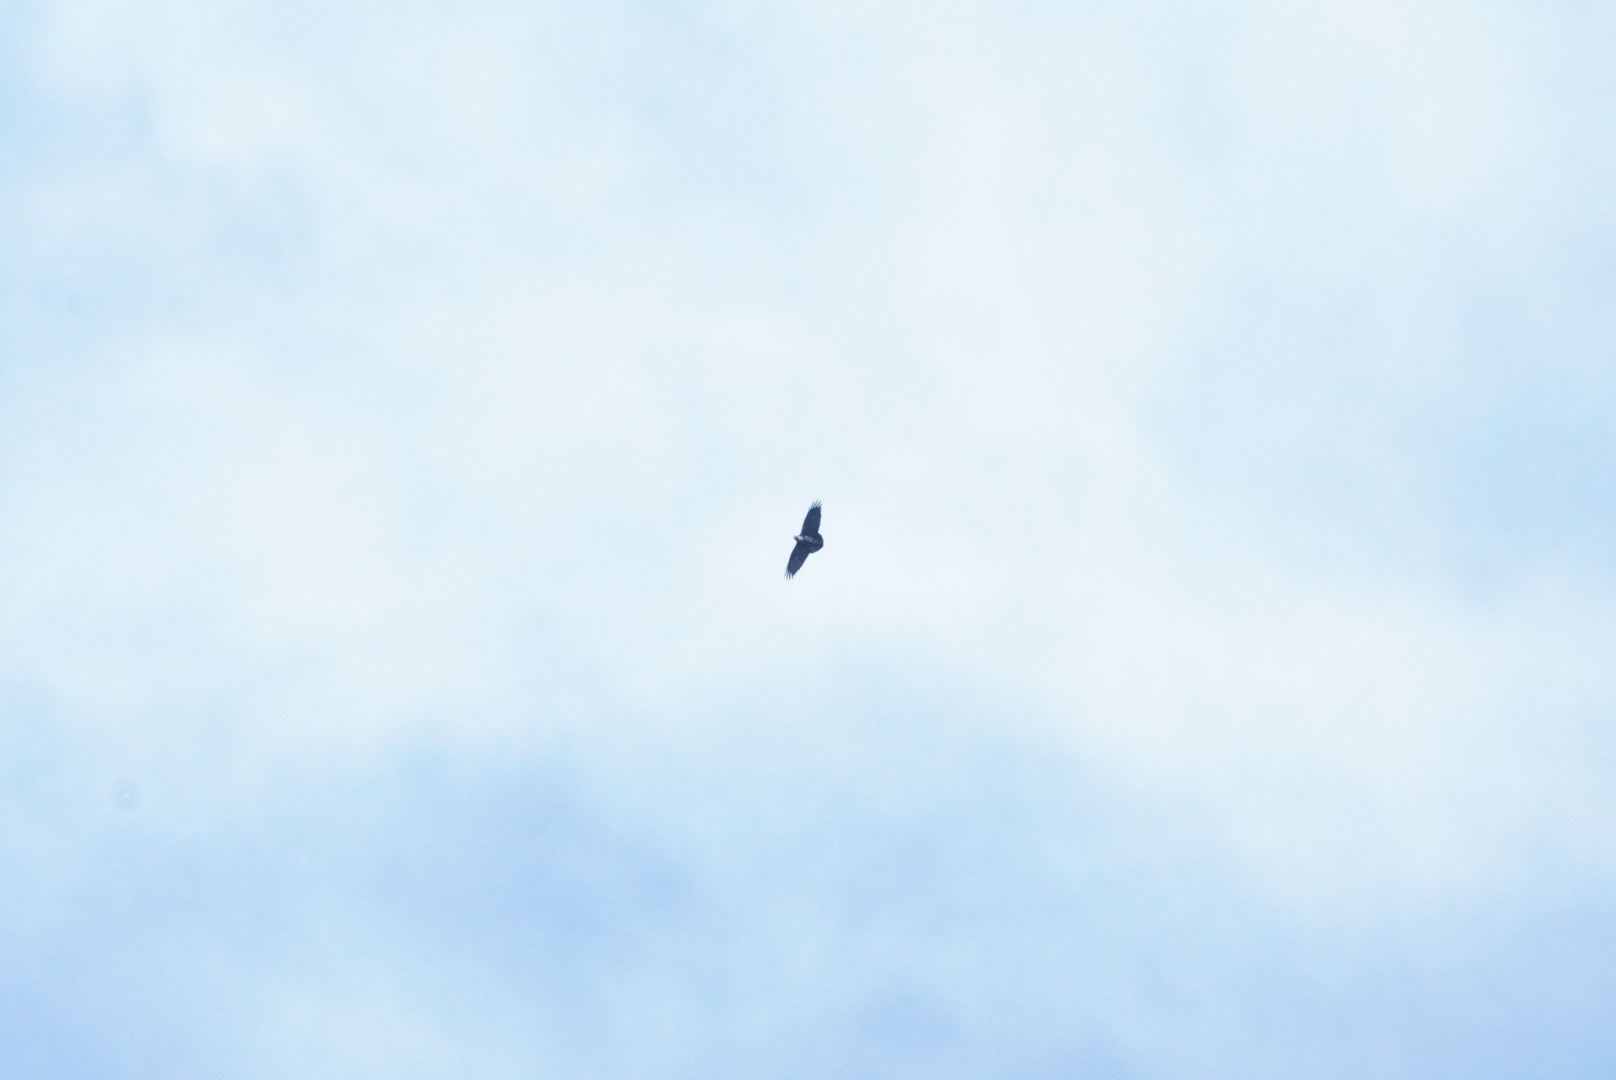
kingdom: Animalia
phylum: Chordata
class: Aves
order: Passeriformes
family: Corvidae
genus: Corvus
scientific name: Corvus albicollis
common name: White-necked raven
